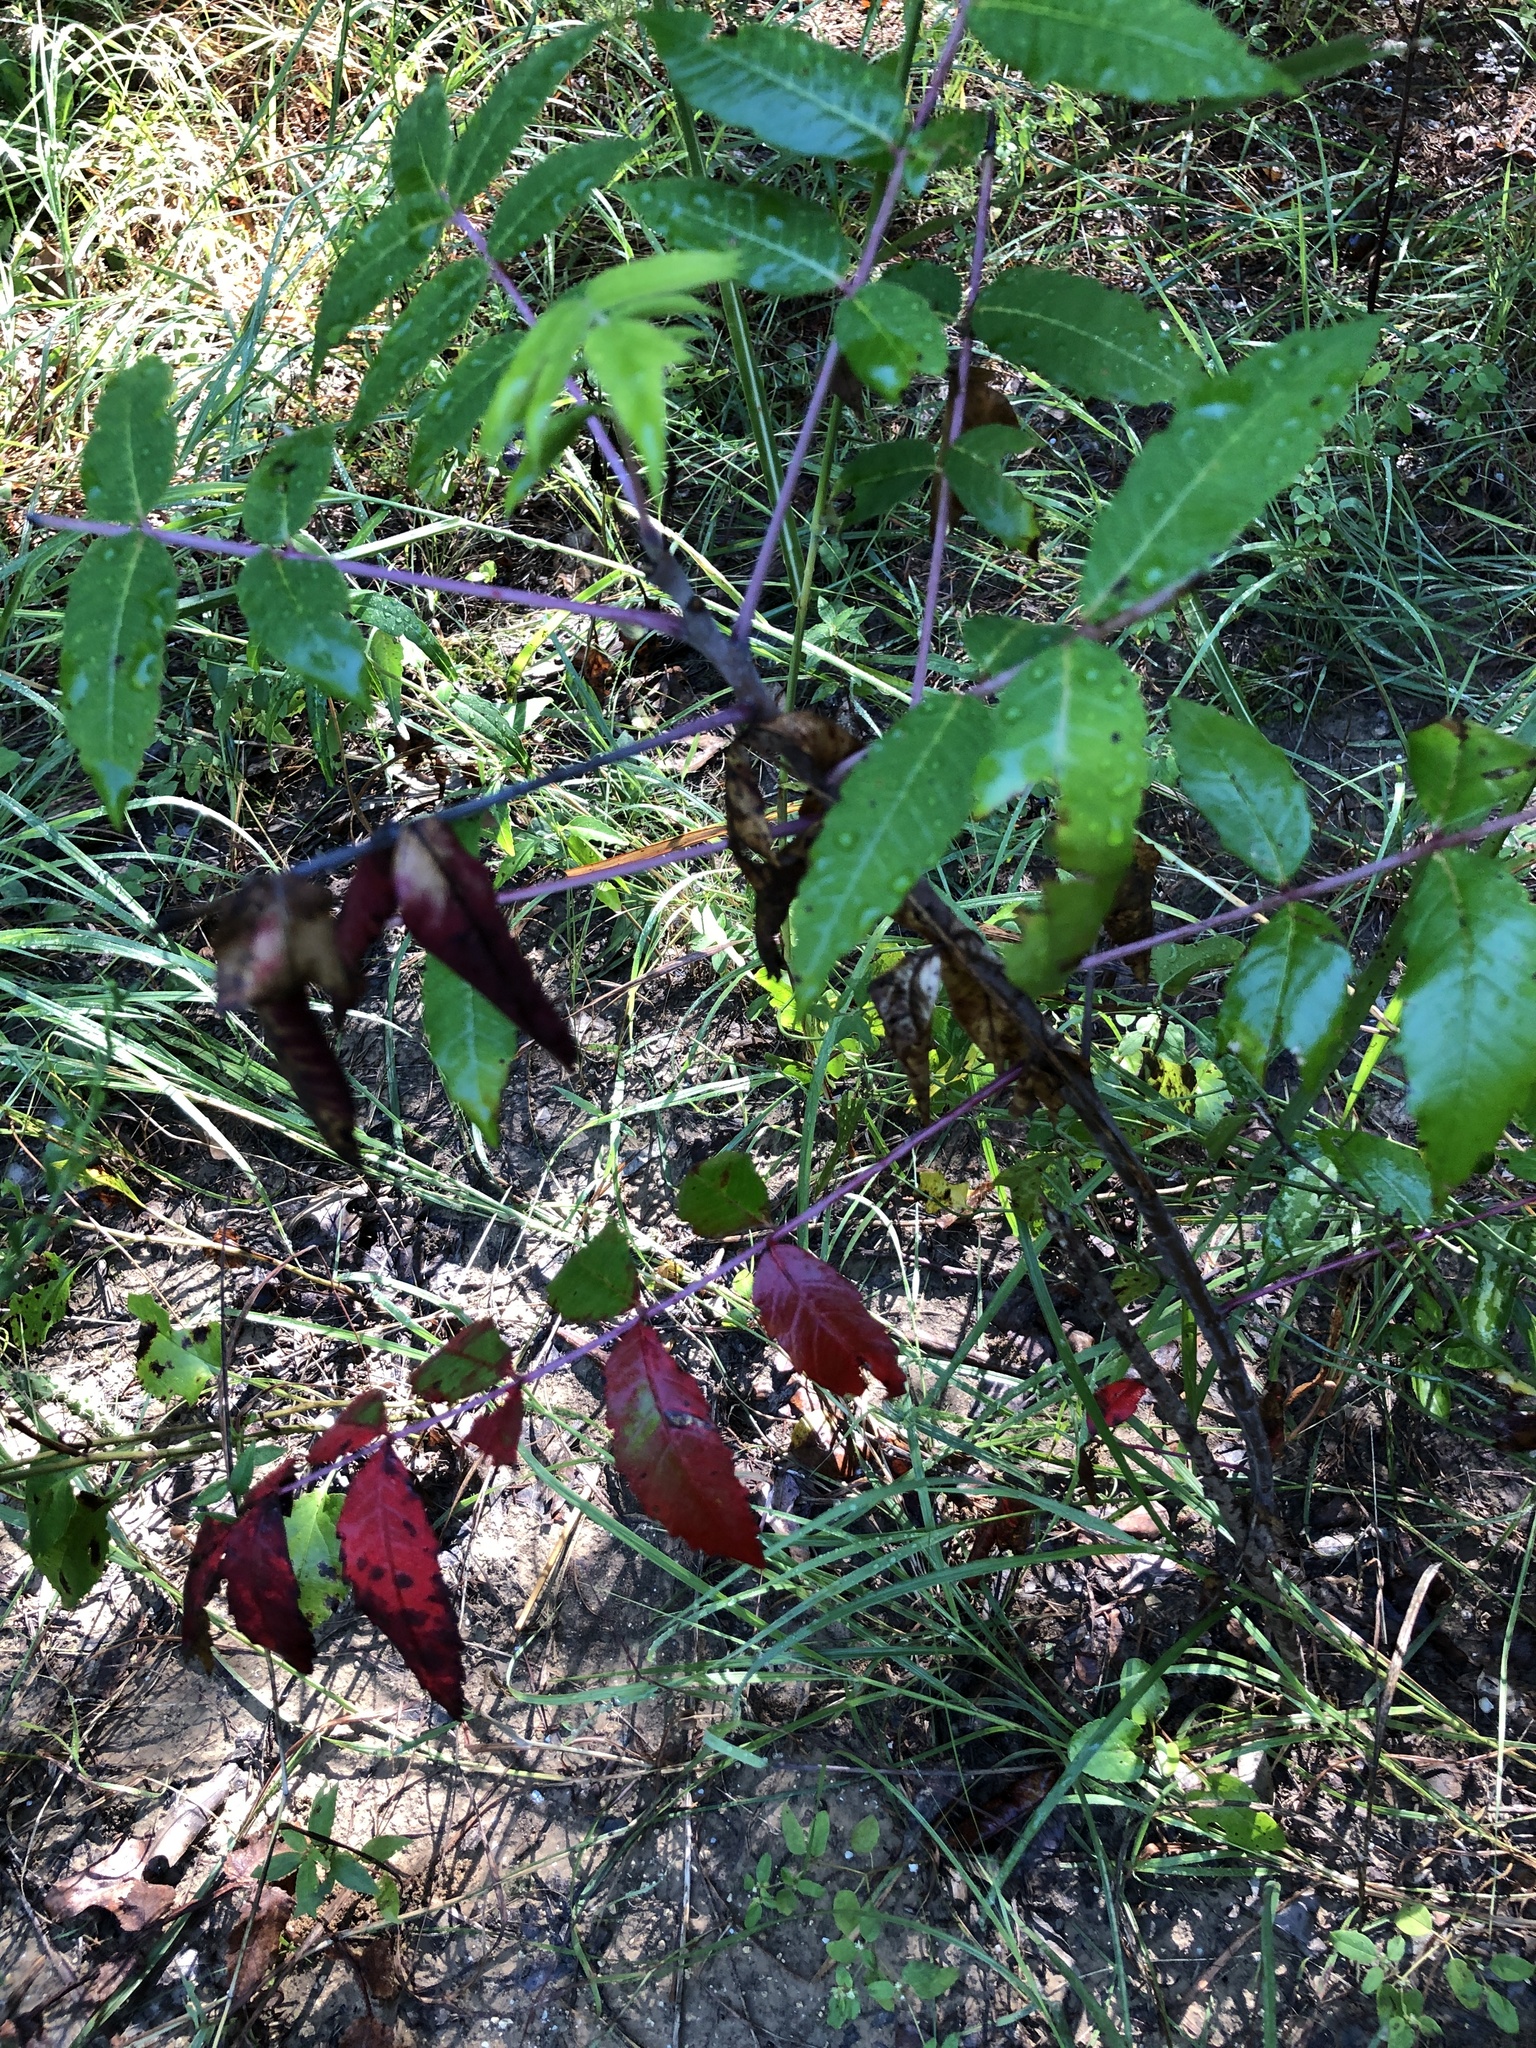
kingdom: Plantae
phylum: Tracheophyta
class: Magnoliopsida
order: Sapindales
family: Anacardiaceae
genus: Rhus
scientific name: Rhus glabra
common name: Scarlet sumac
